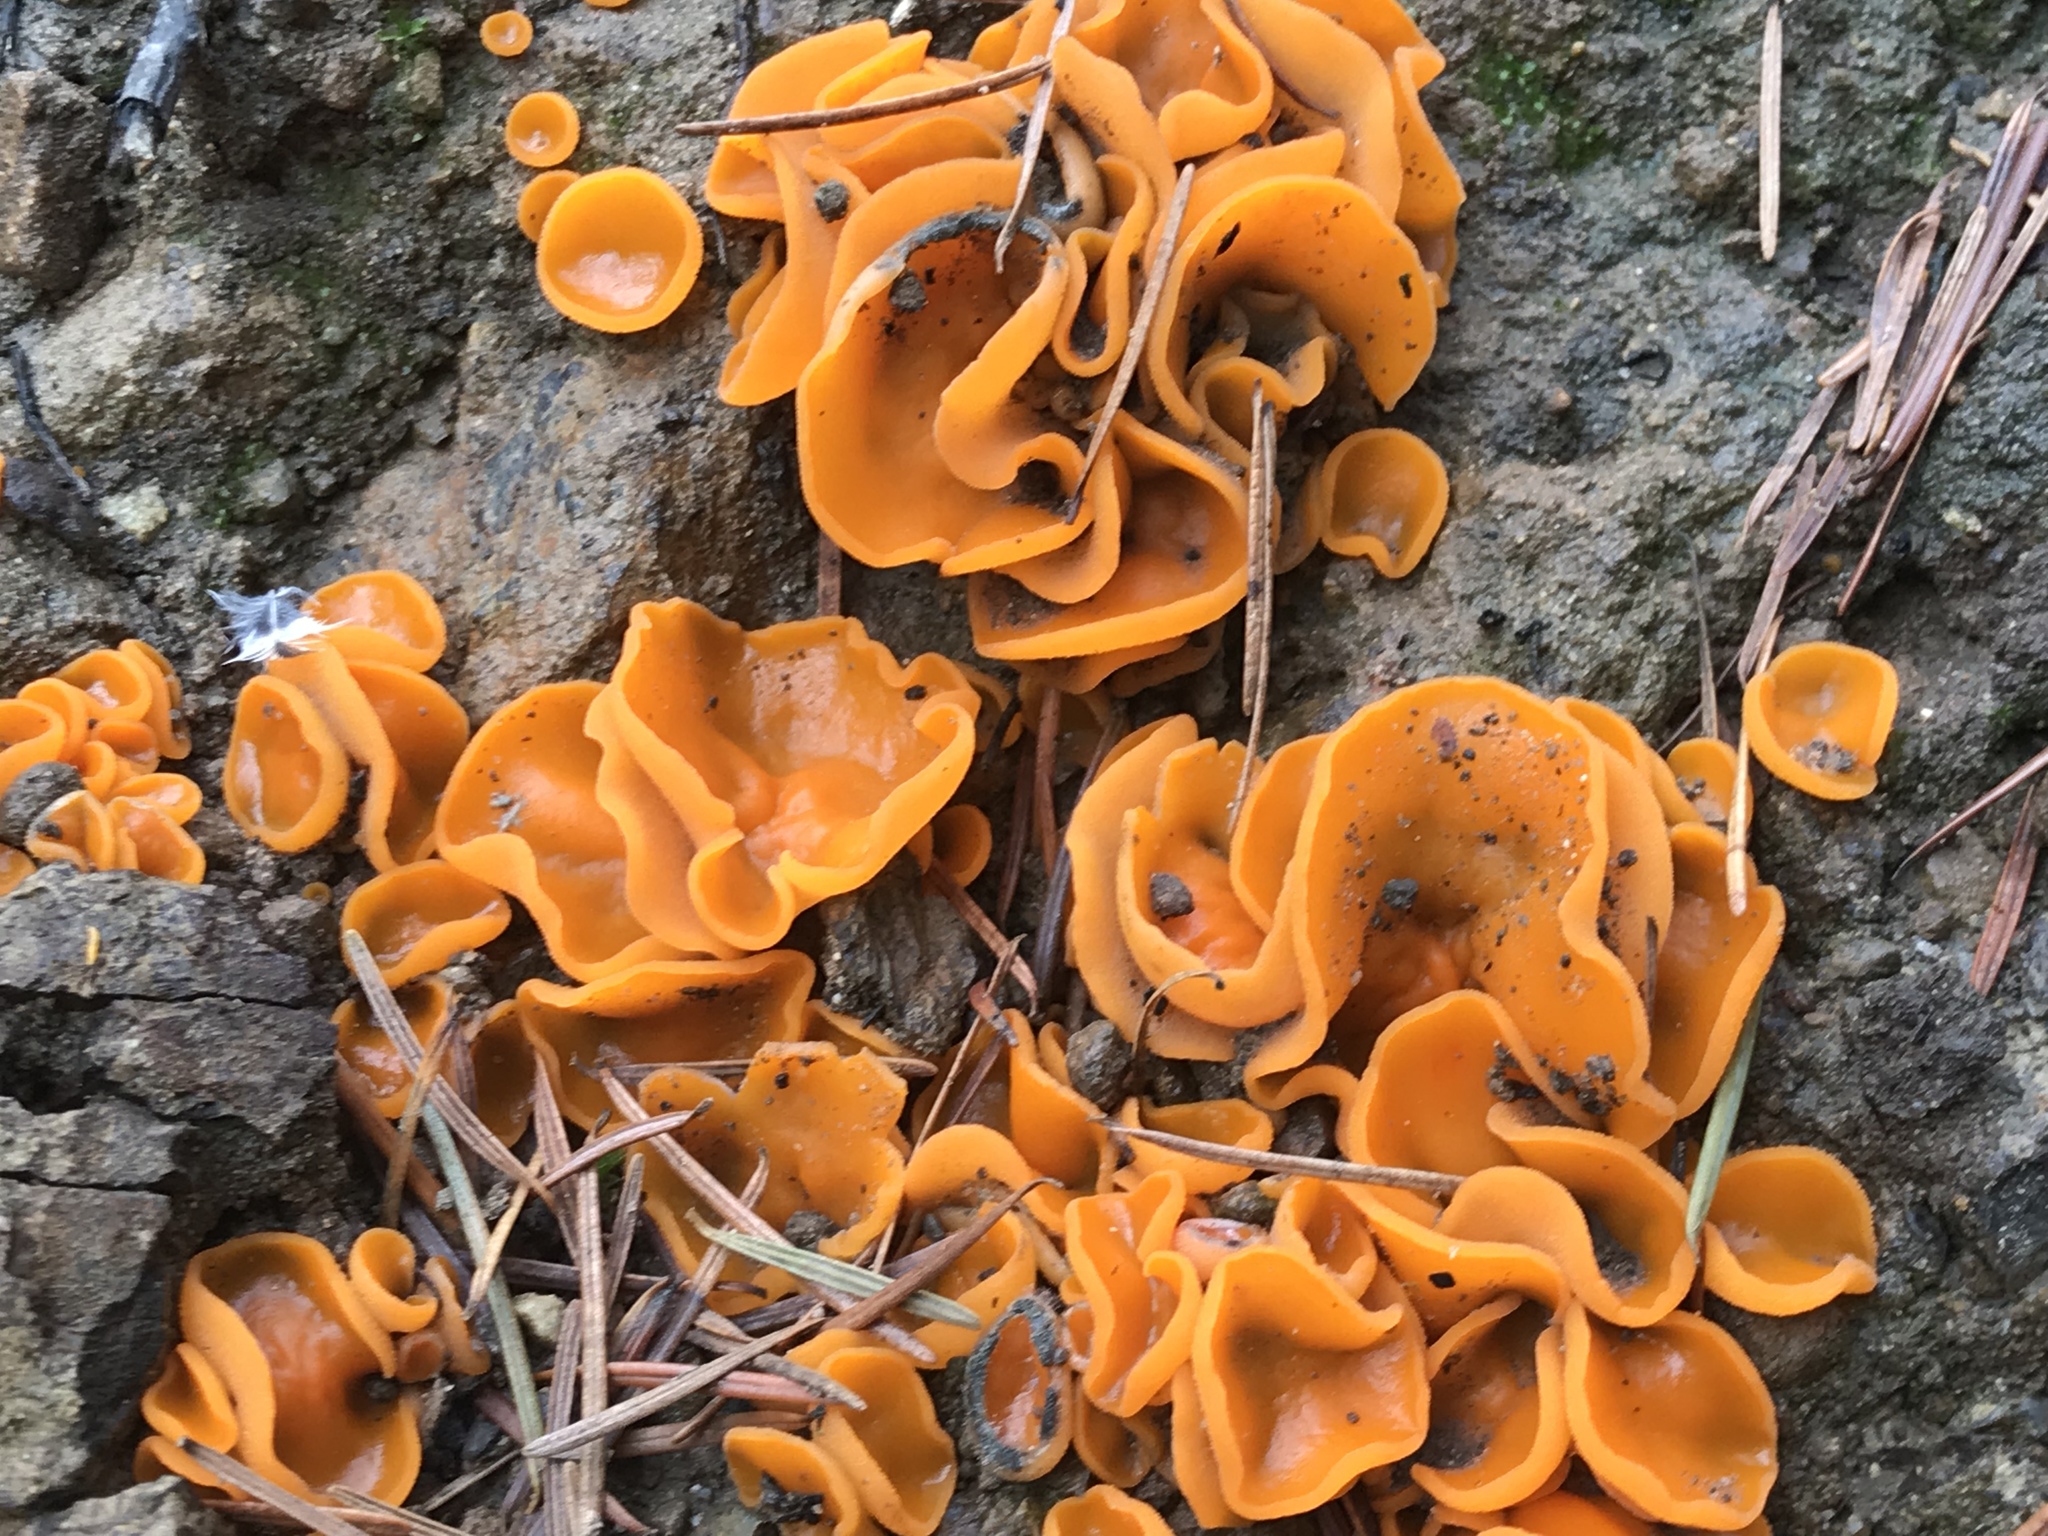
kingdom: Fungi
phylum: Ascomycota
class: Pezizomycetes
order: Pezizales
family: Pyronemataceae
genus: Aleuria
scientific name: Aleuria aurantia
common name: Orange peel fungus
